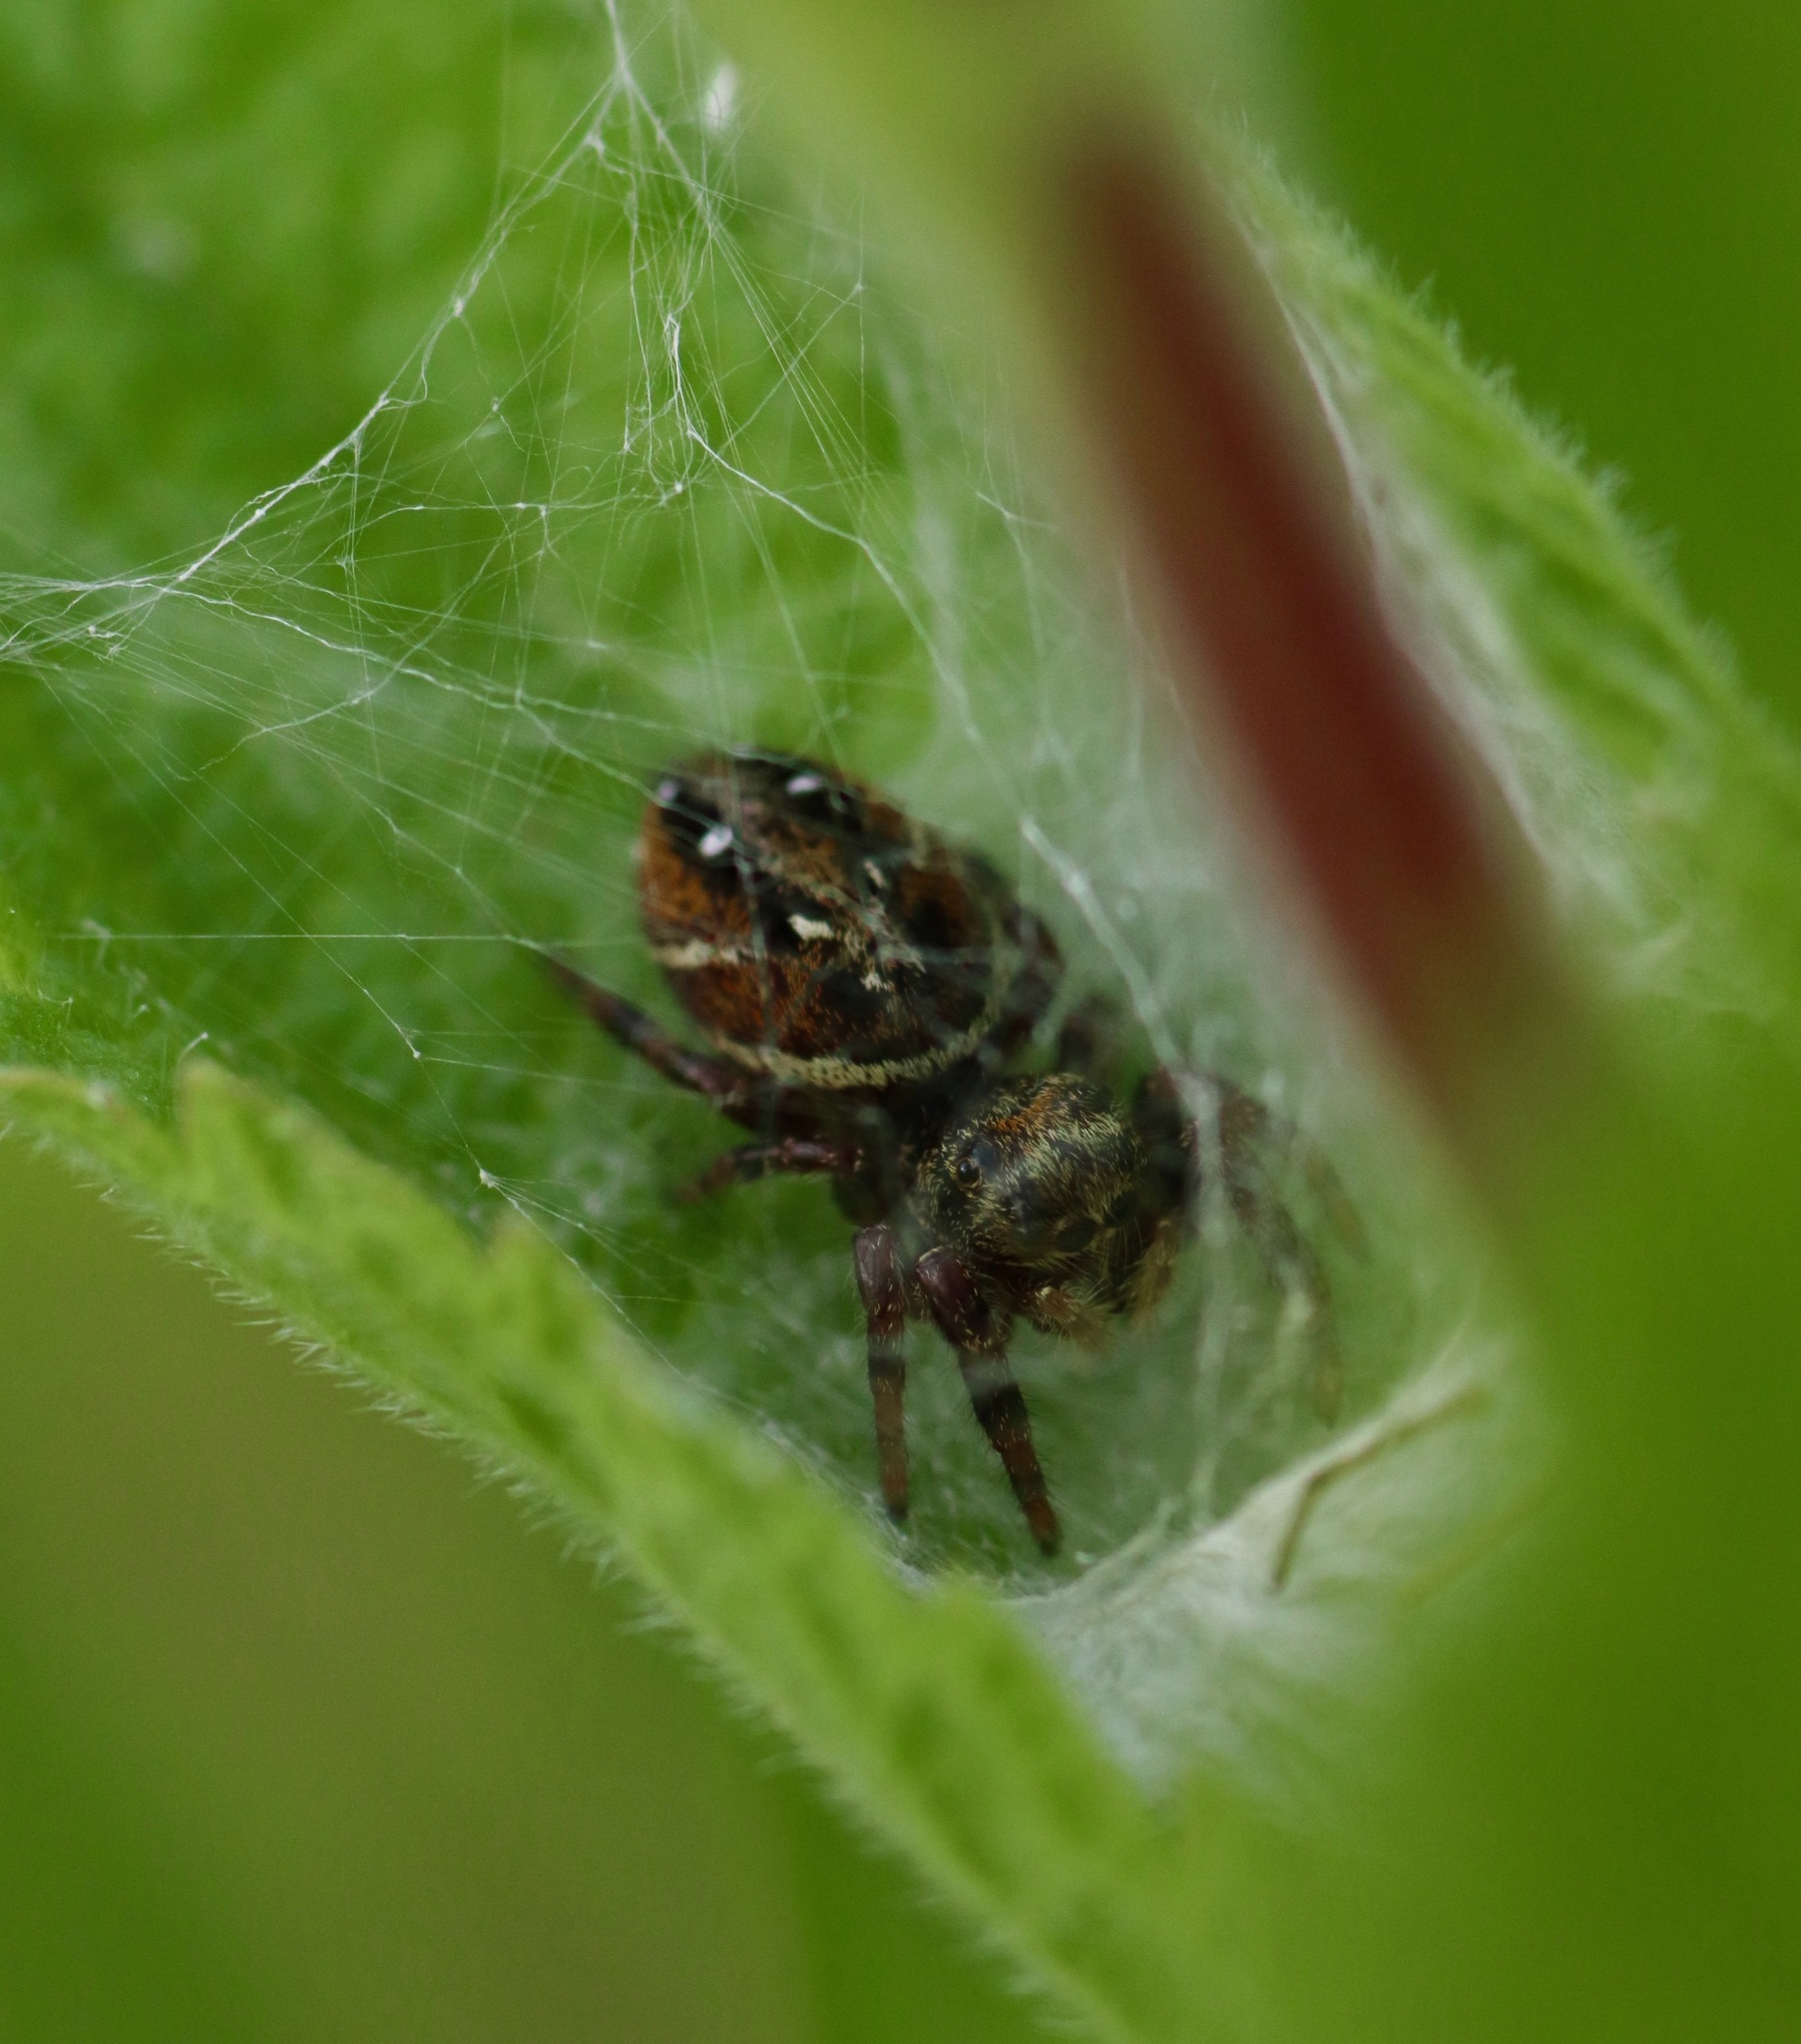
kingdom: Animalia
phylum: Arthropoda
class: Arachnida
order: Araneae
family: Salticidae
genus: Phidippus
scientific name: Phidippus clarus
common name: Brilliant jumping spider
